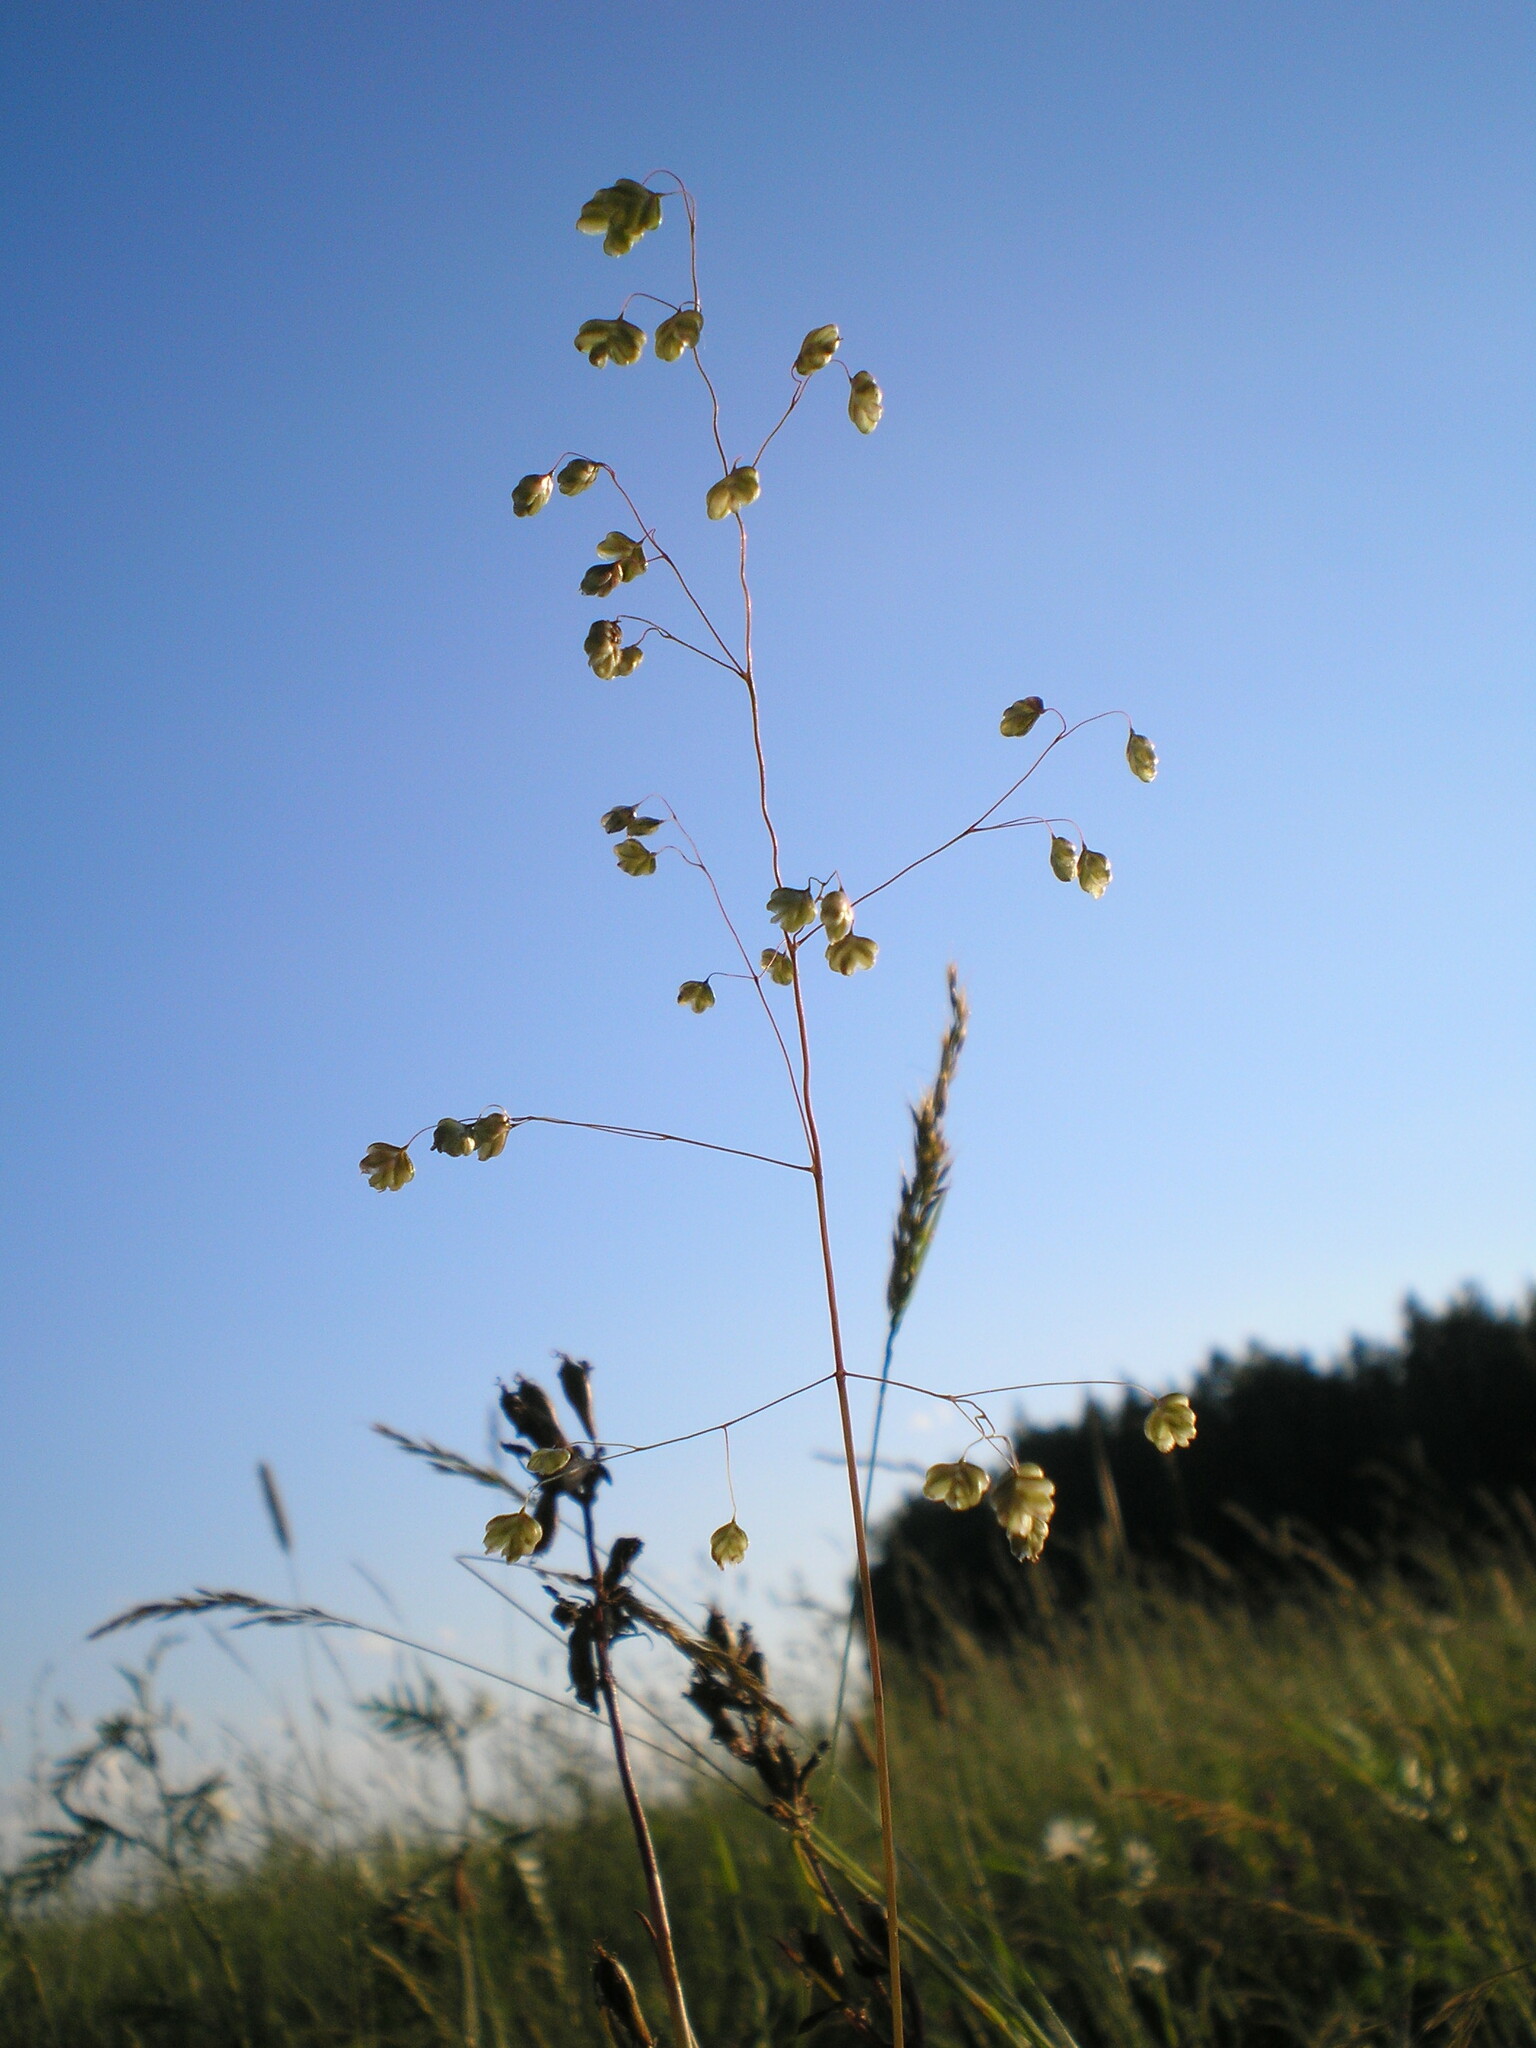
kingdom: Plantae
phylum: Tracheophyta
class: Liliopsida
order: Poales
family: Poaceae
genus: Briza
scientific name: Briza media
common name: Quaking grass
